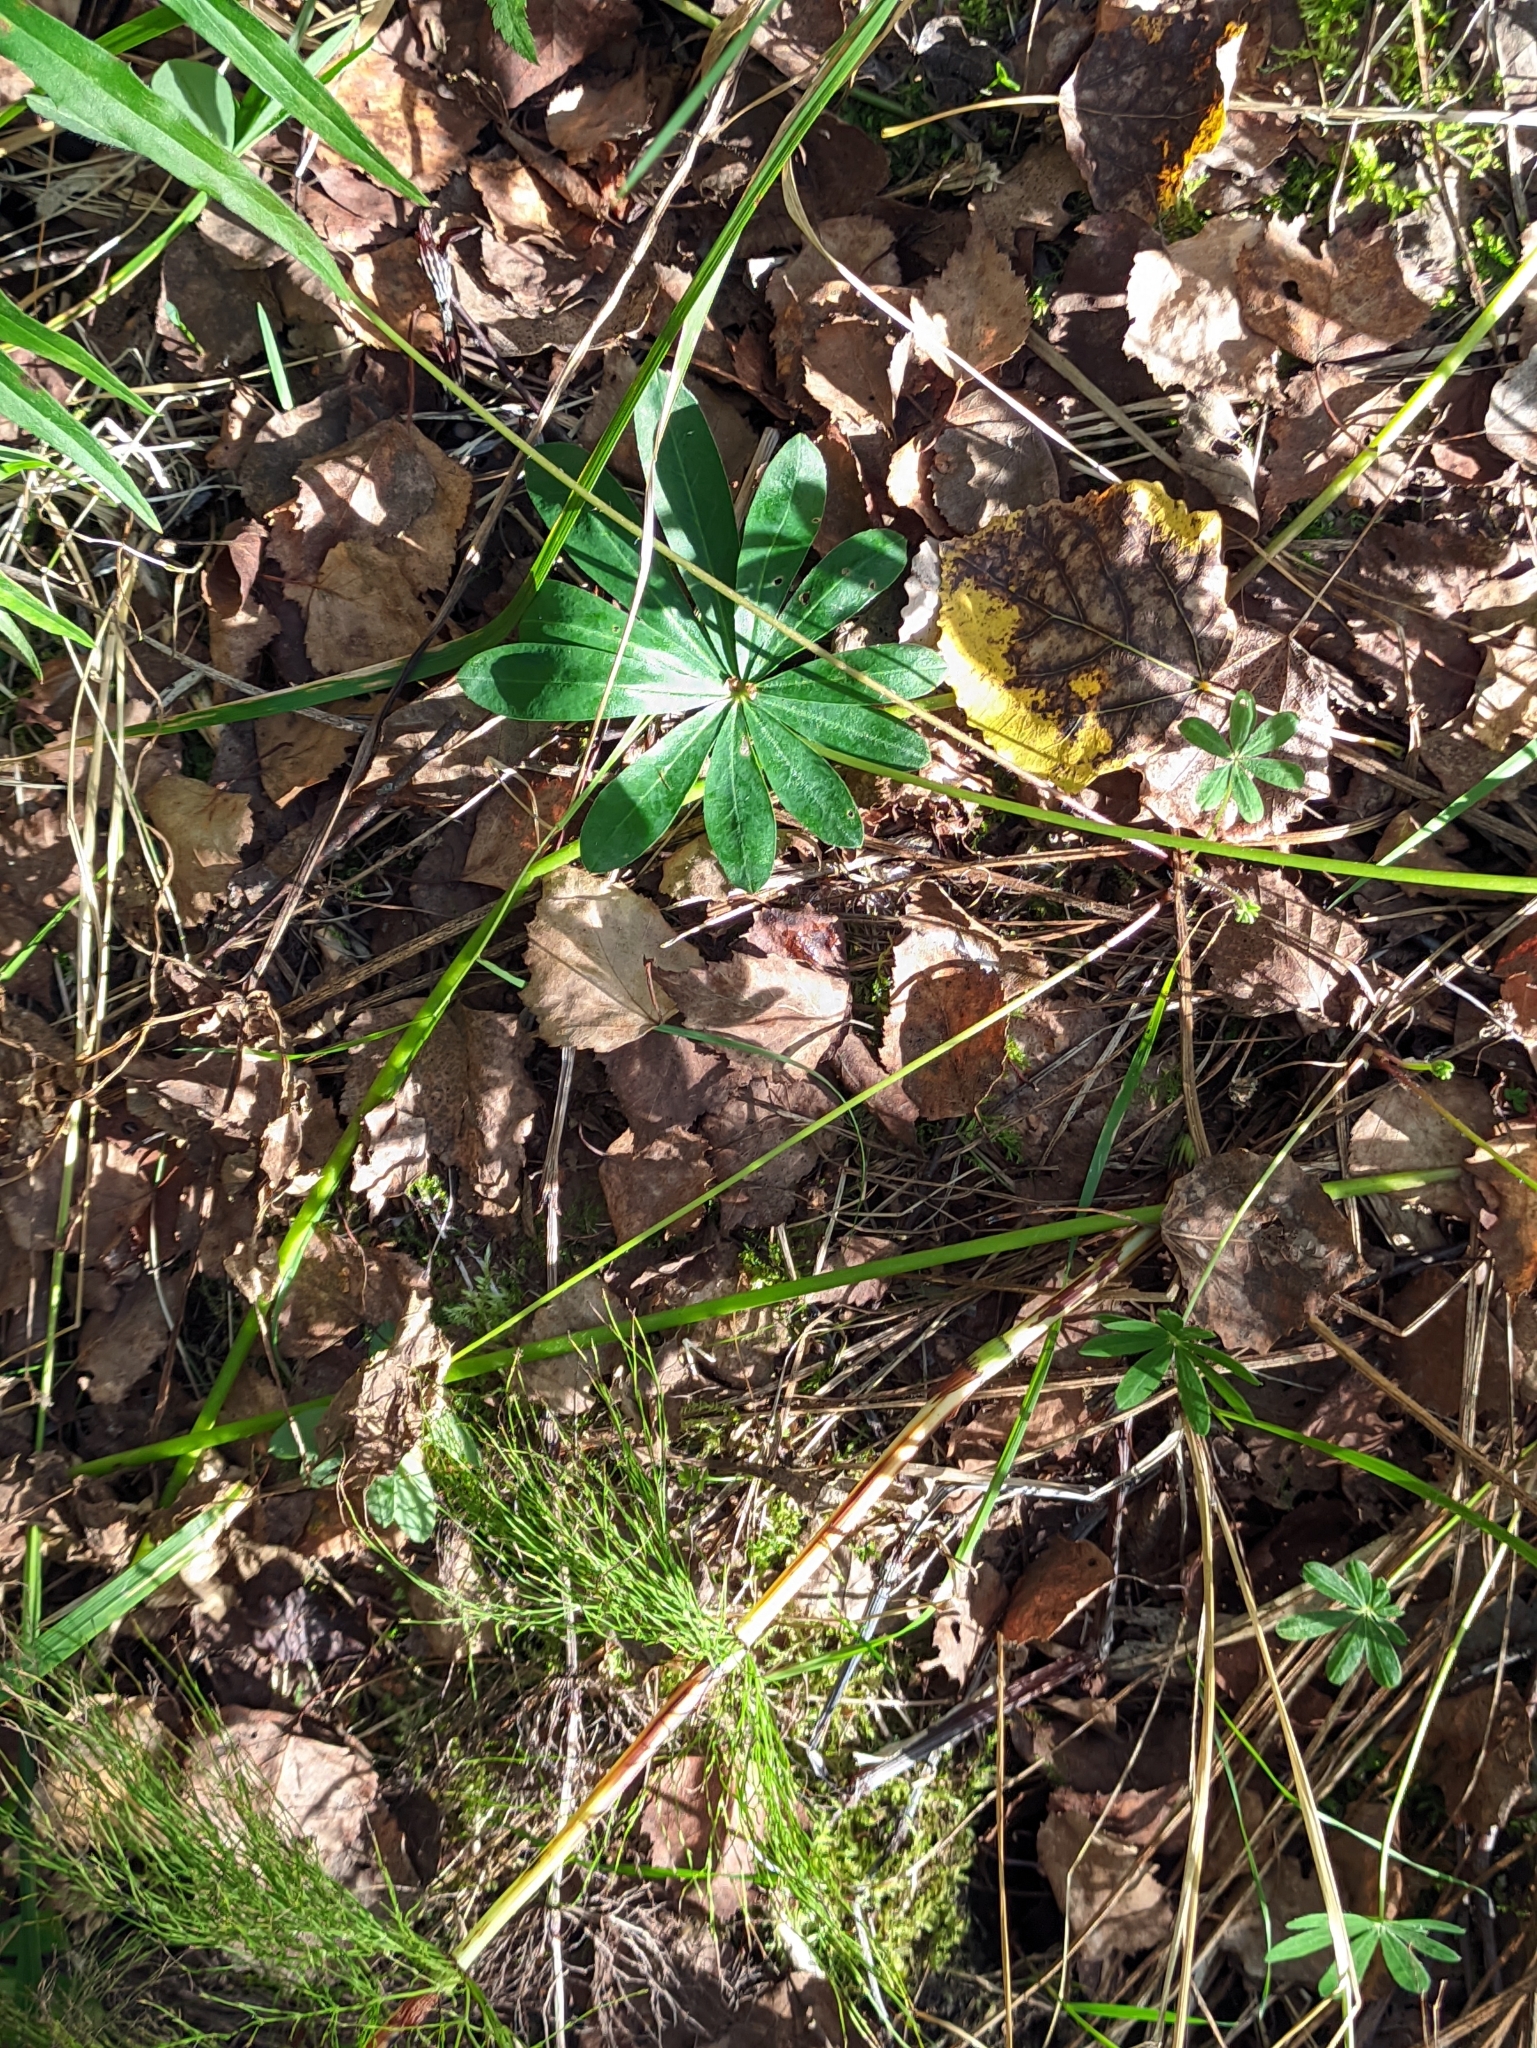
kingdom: Plantae
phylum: Tracheophyta
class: Magnoliopsida
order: Fabales
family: Fabaceae
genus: Lupinus
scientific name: Lupinus polyphyllus
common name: Garden lupin
